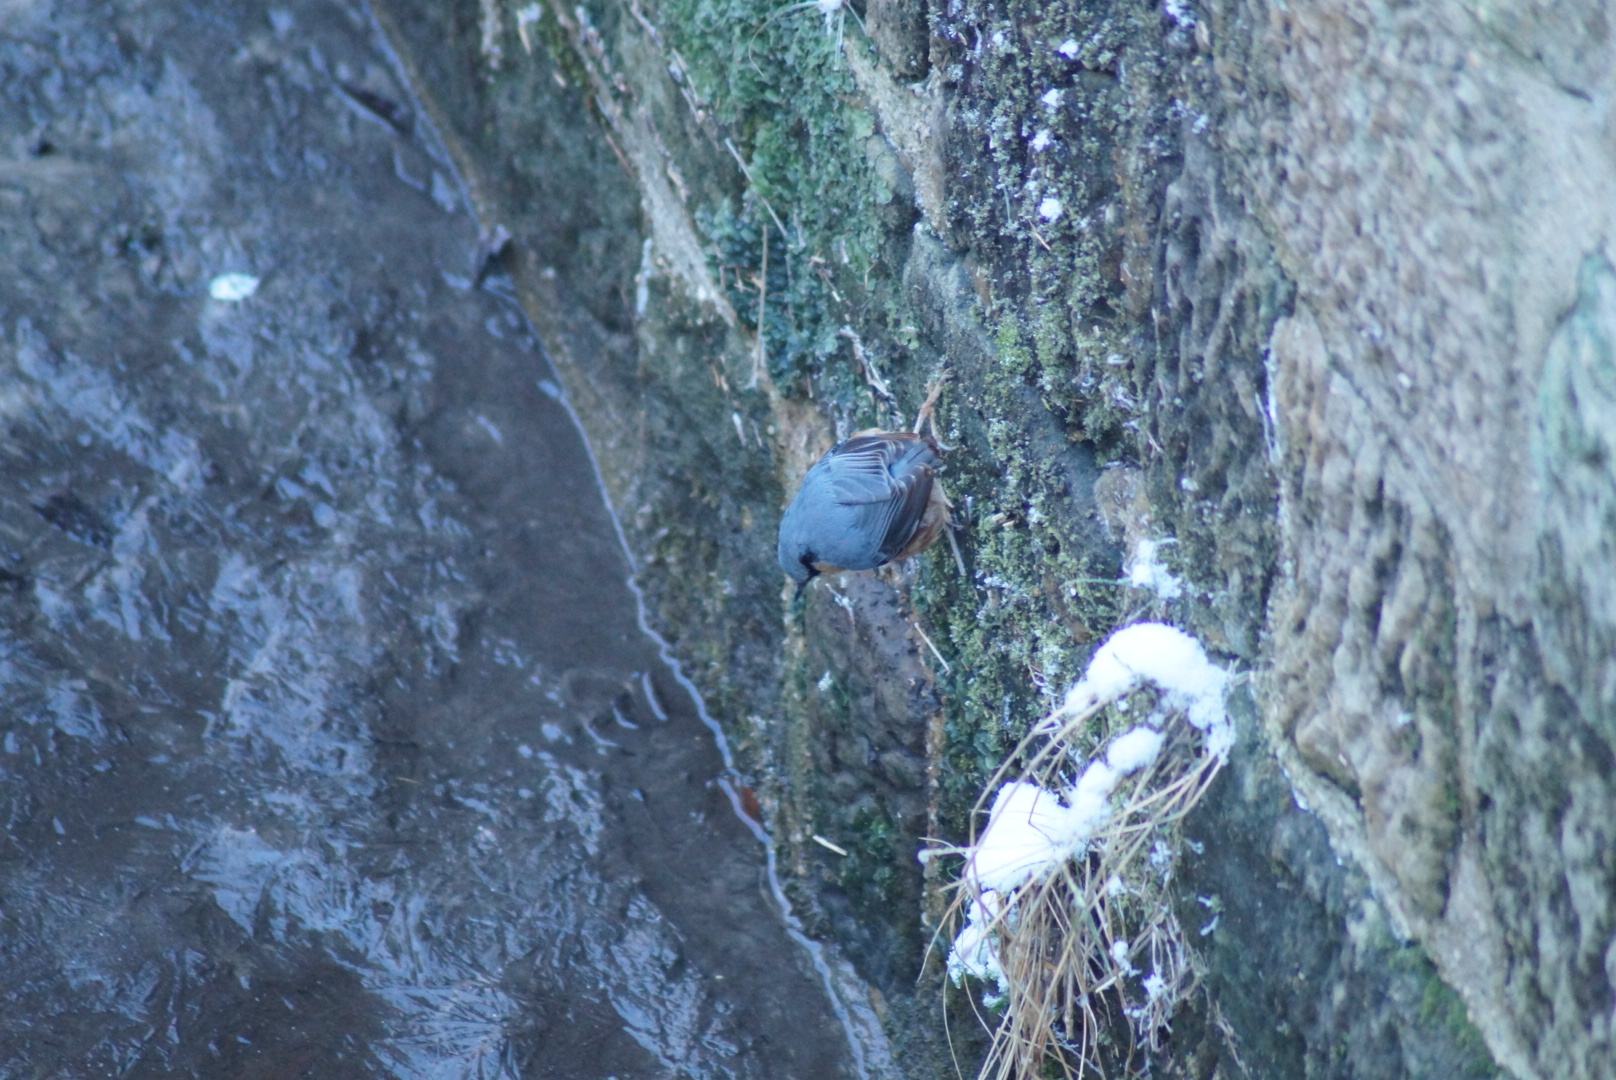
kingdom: Animalia
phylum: Chordata
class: Aves
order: Passeriformes
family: Sittidae
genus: Sitta
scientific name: Sitta europaea
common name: Eurasian nuthatch
